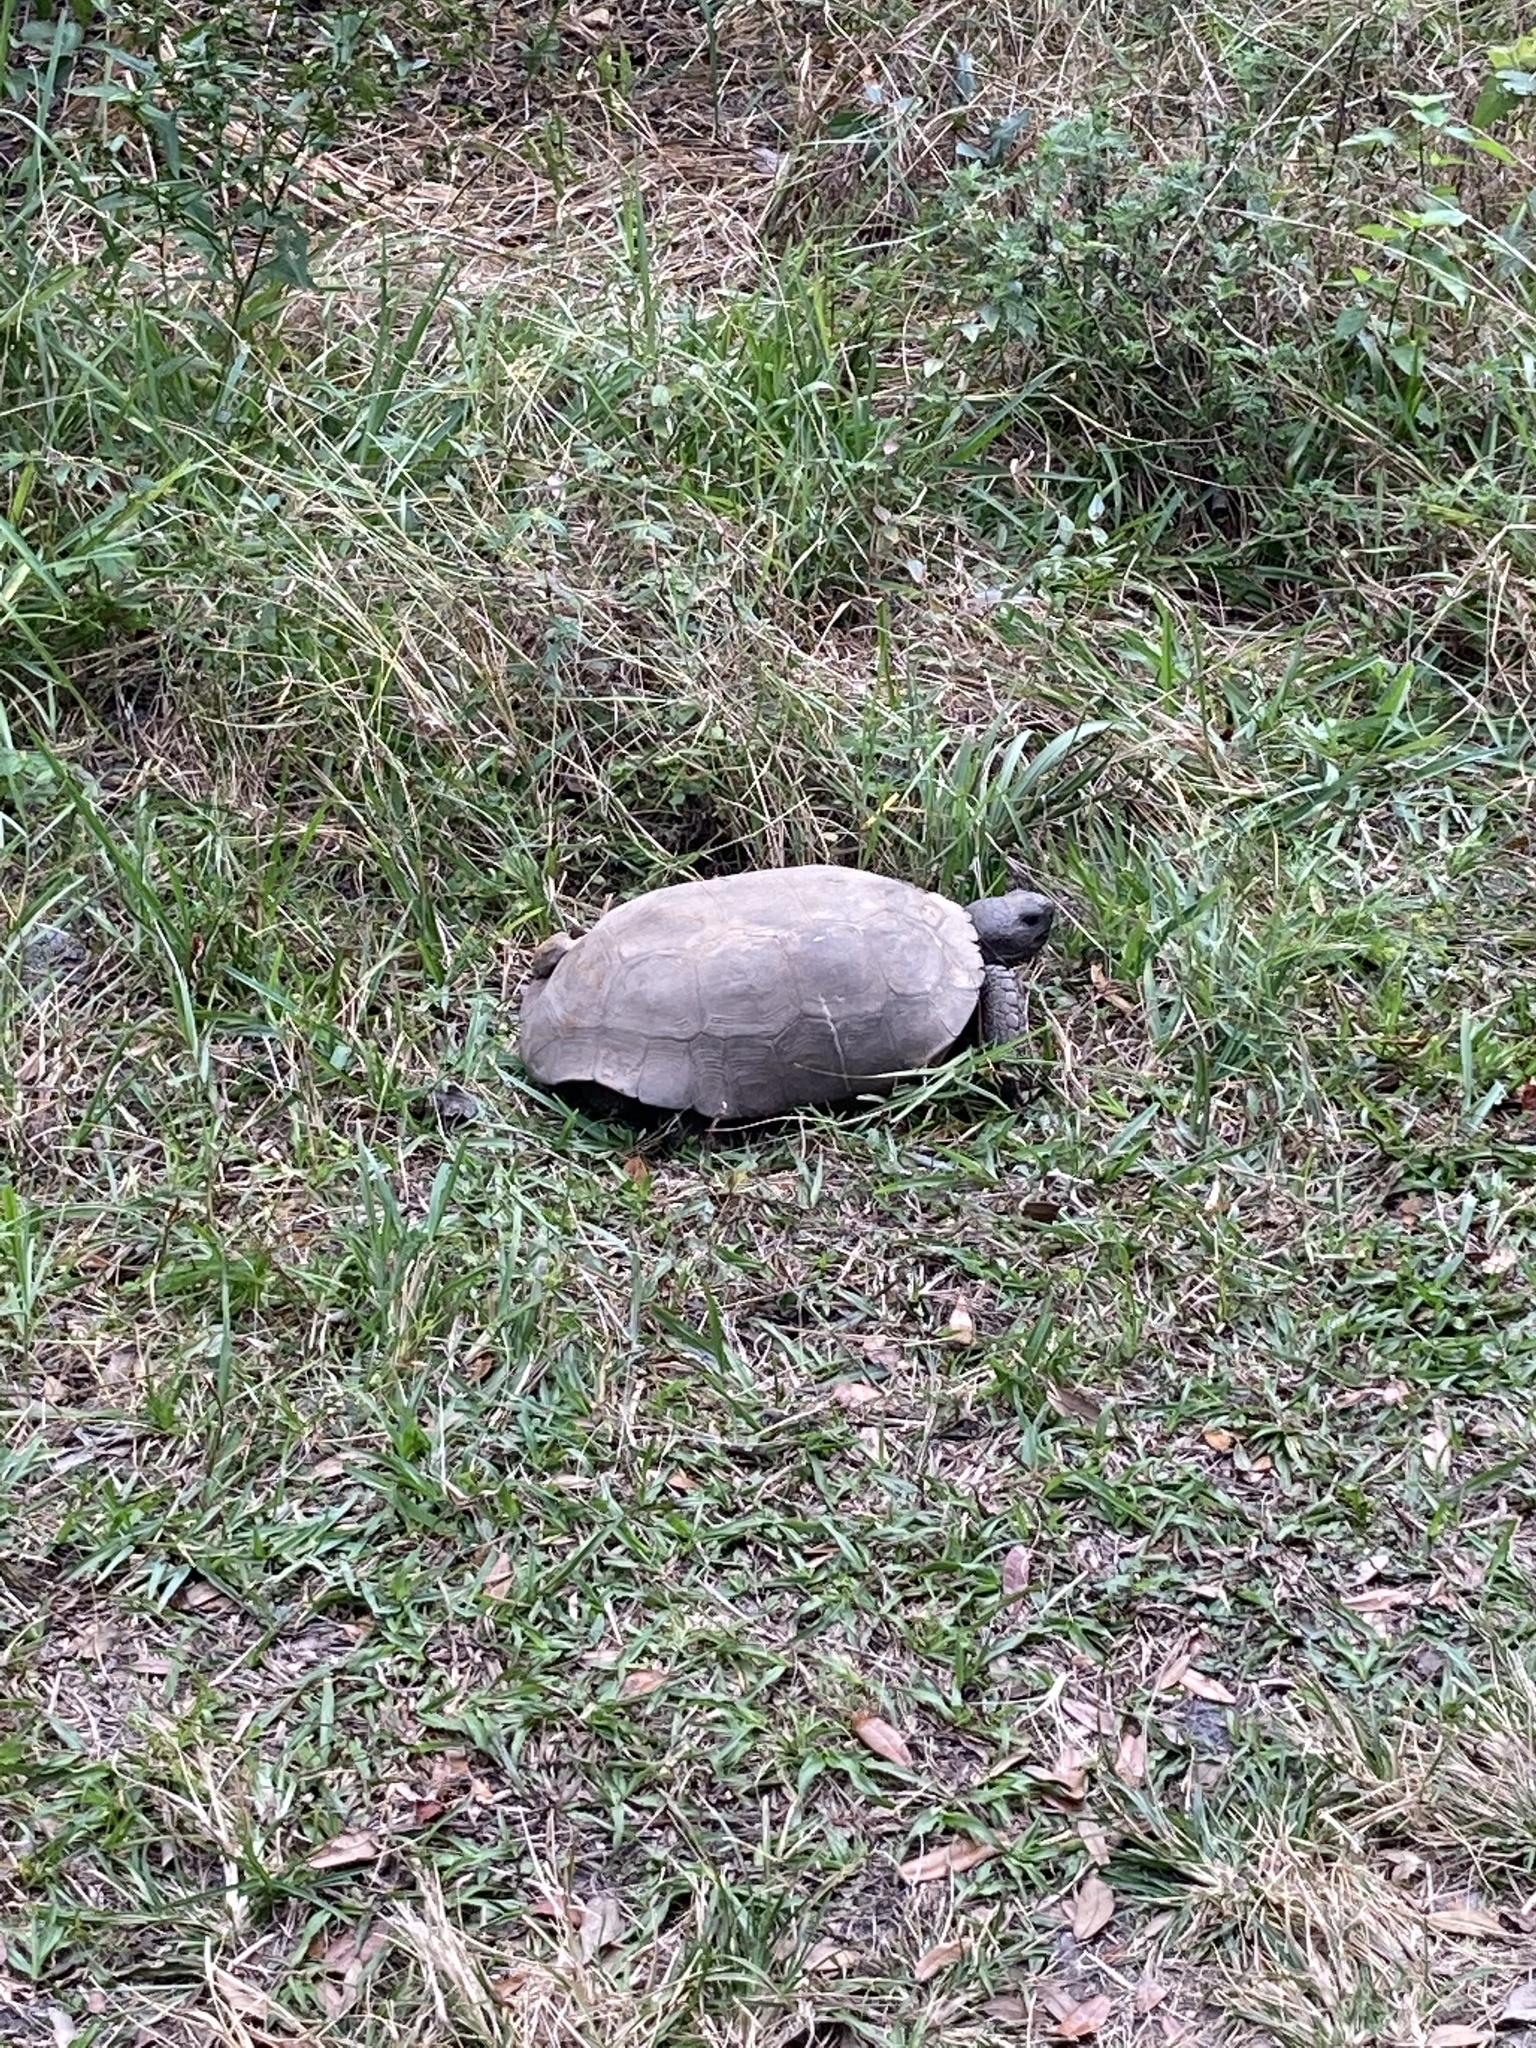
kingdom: Animalia
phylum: Chordata
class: Testudines
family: Testudinidae
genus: Gopherus
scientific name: Gopherus polyphemus
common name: Florida gopher tortoise
